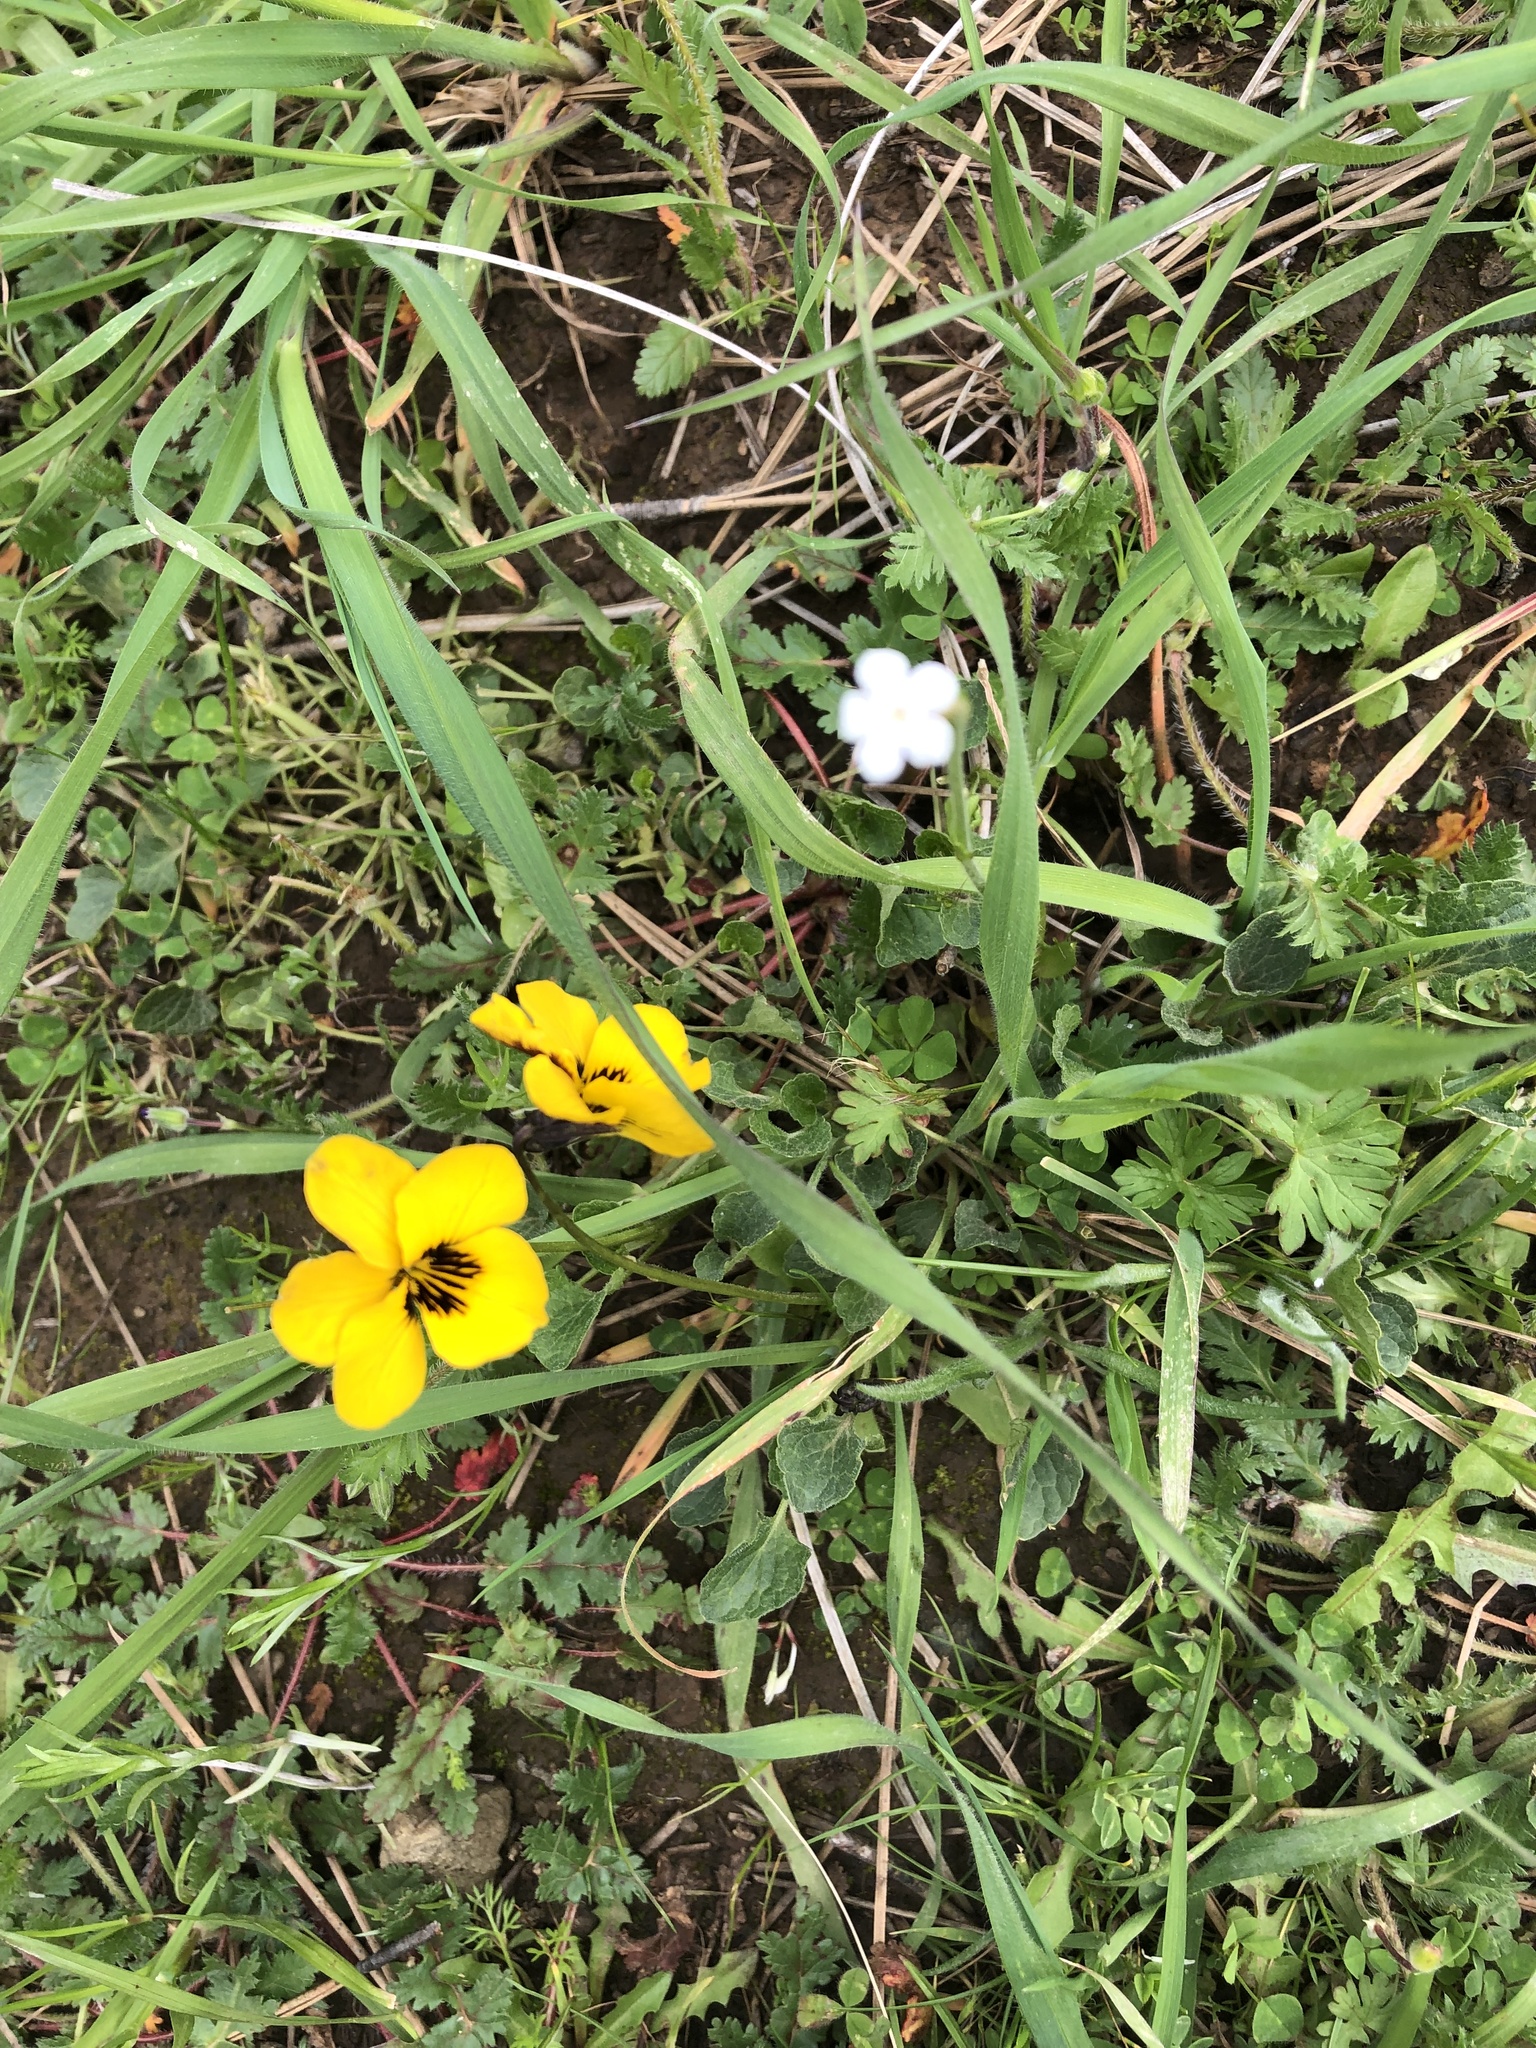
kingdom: Plantae
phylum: Tracheophyta
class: Magnoliopsida
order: Malpighiales
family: Violaceae
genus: Viola
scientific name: Viola pedunculata
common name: California golden violet
